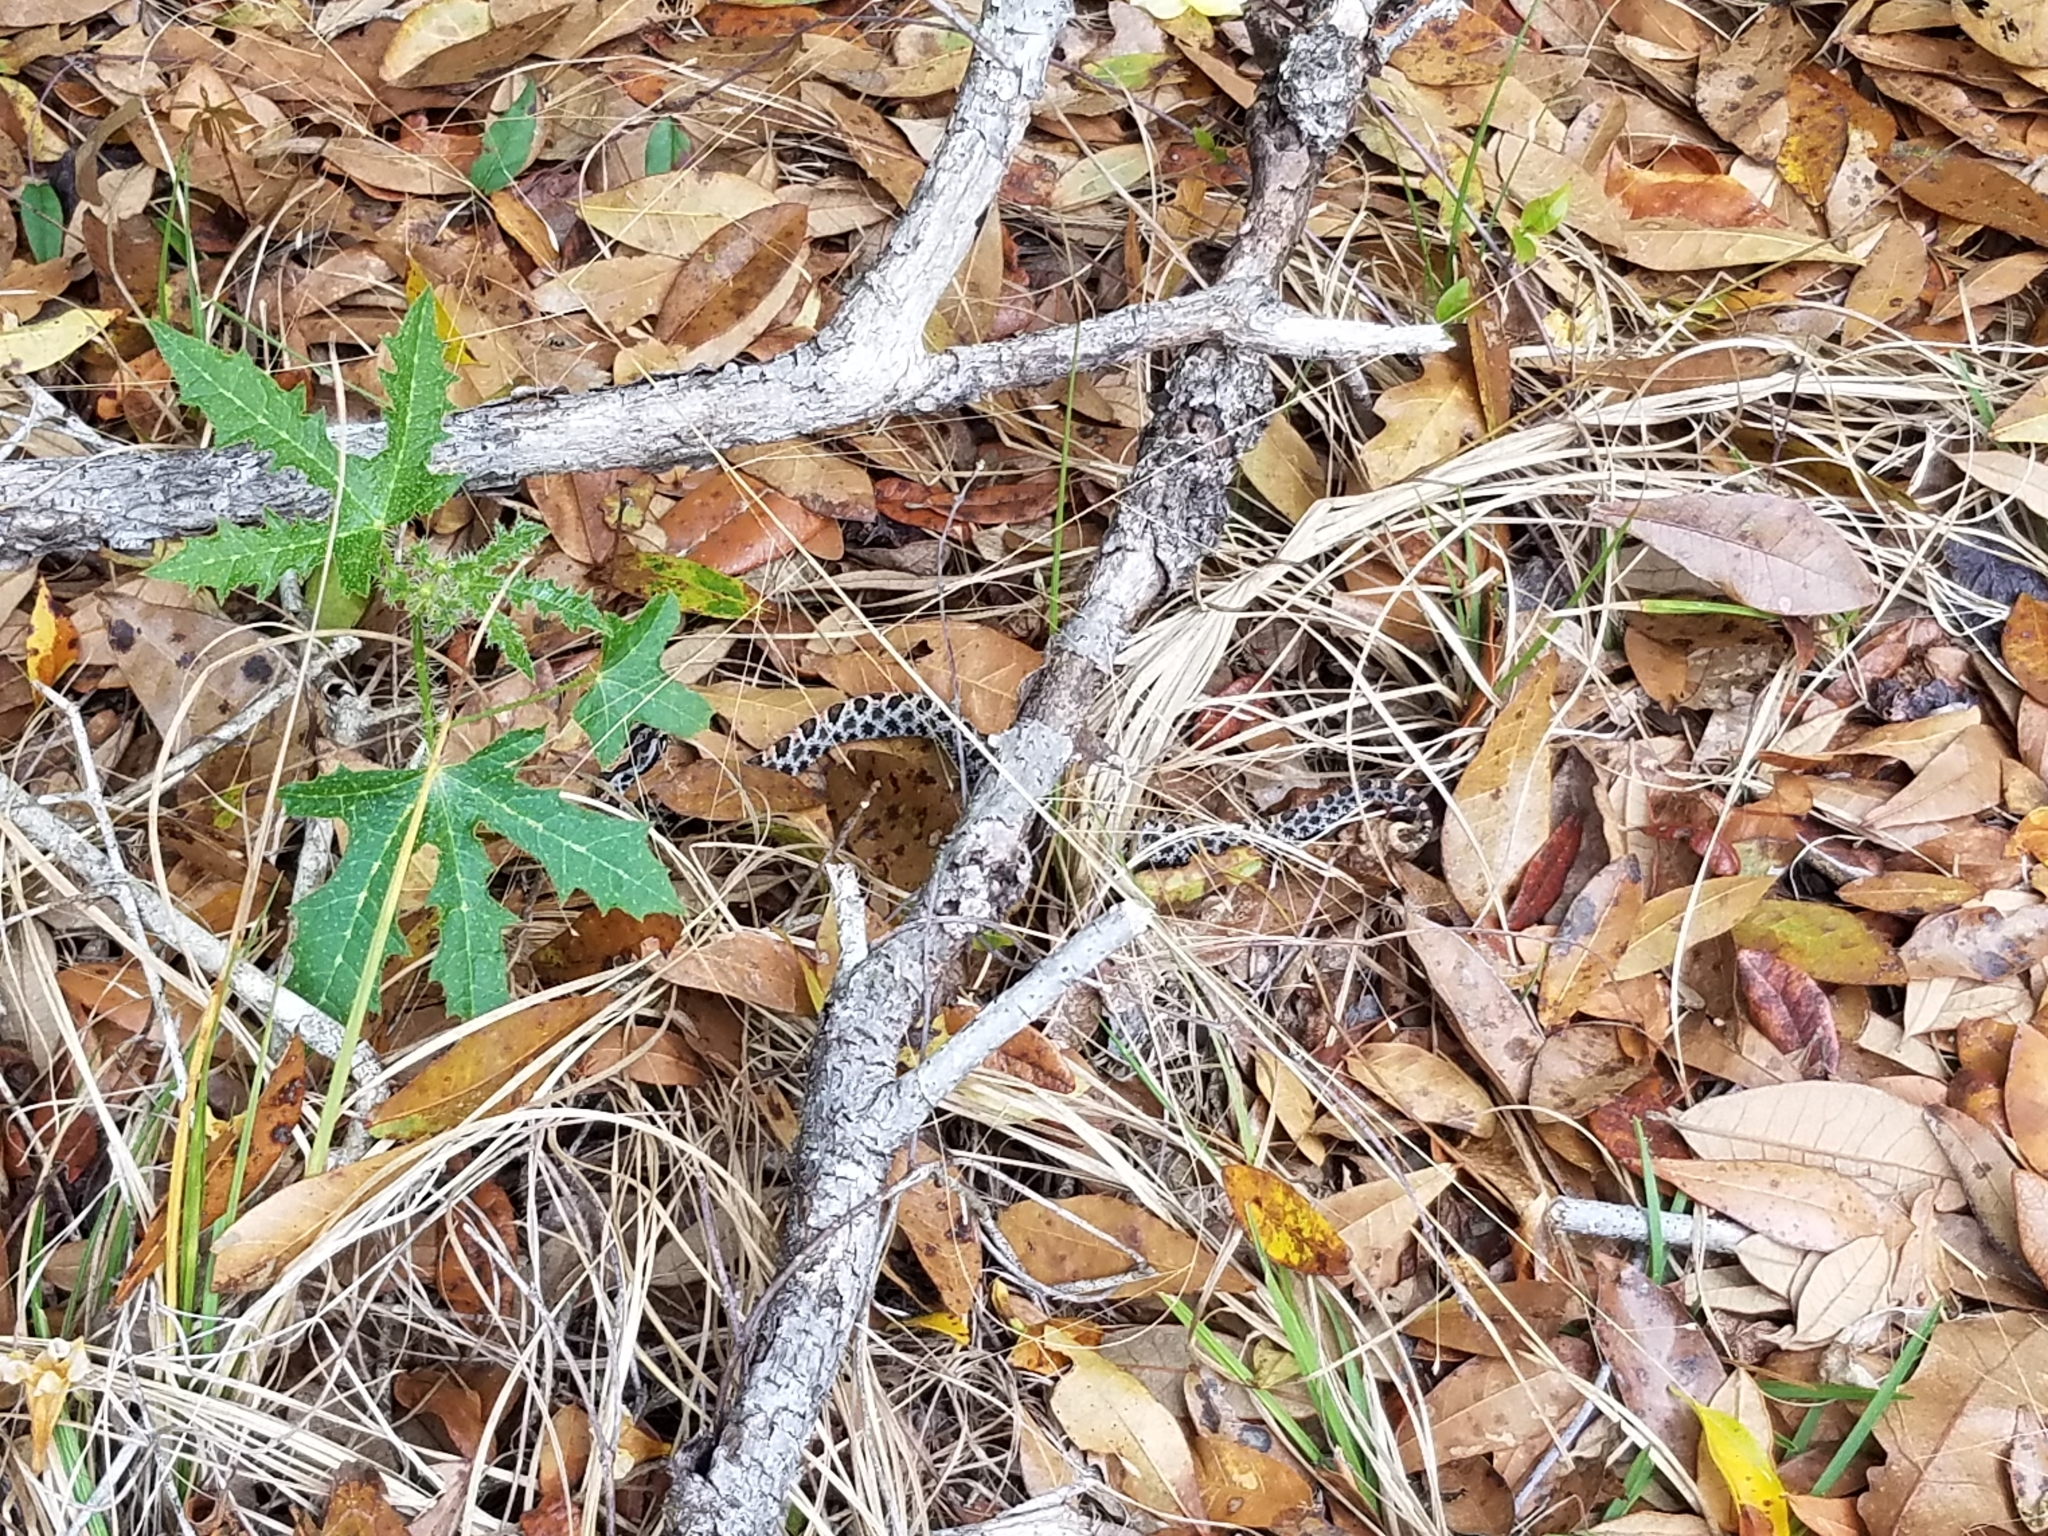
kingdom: Animalia
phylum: Chordata
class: Squamata
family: Viperidae
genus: Sistrurus
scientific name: Sistrurus miliarius
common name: Pygmy rattlesnake
